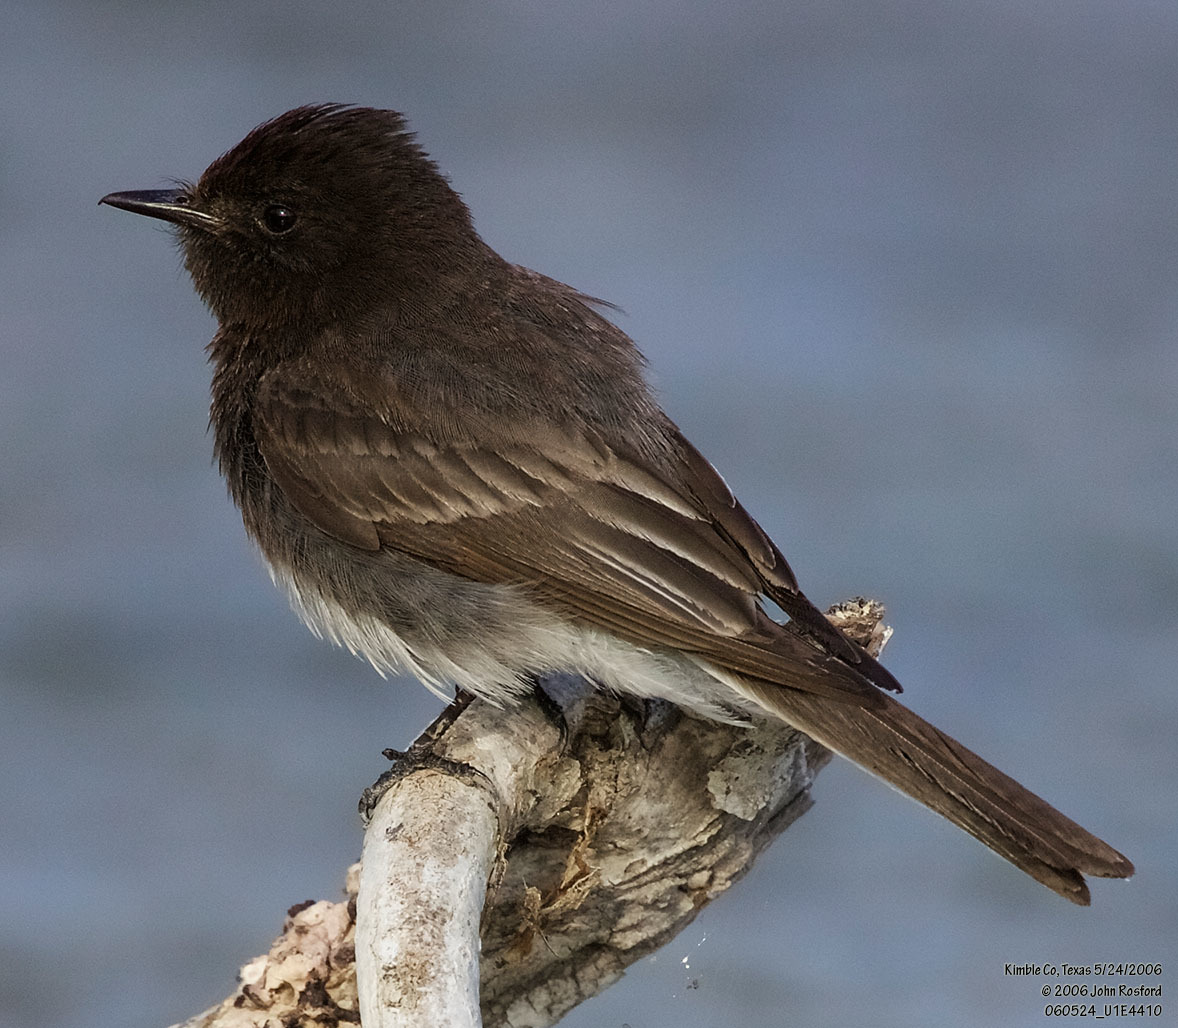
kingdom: Animalia
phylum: Chordata
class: Aves
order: Passeriformes
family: Tyrannidae
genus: Sayornis
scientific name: Sayornis nigricans
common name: Black phoebe
